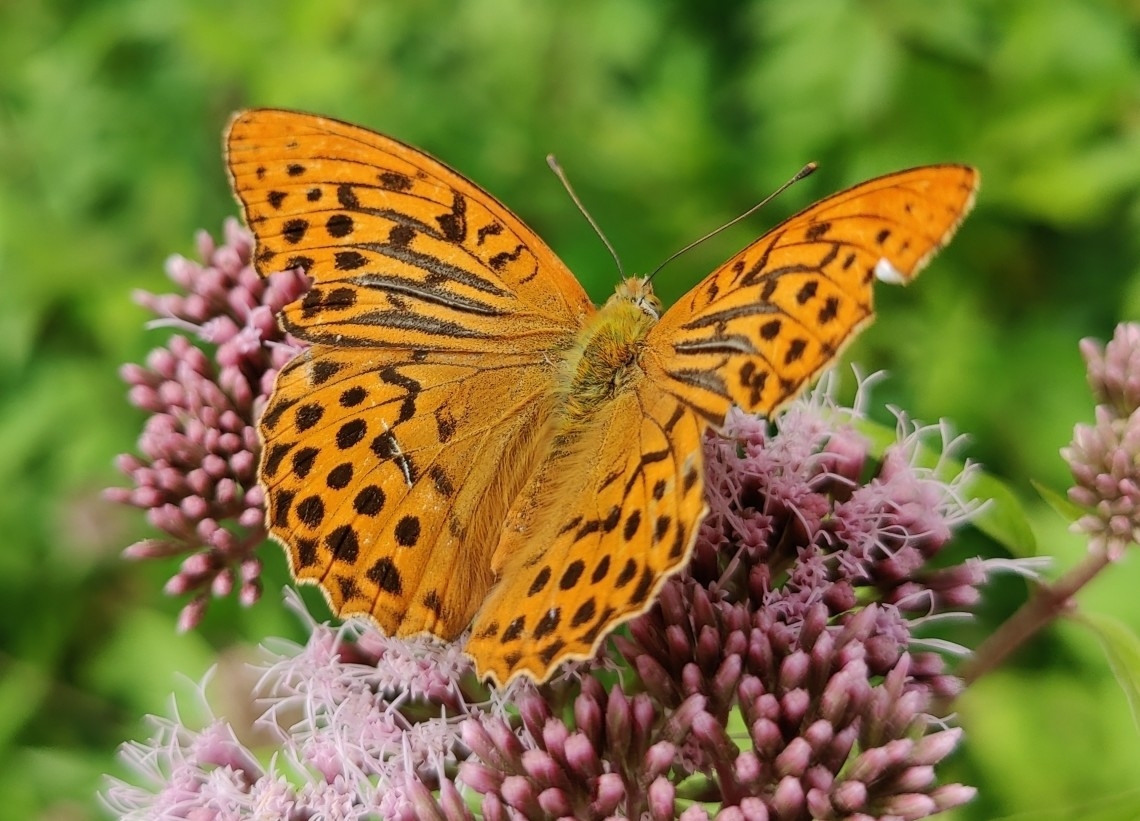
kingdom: Animalia
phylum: Arthropoda
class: Insecta
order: Lepidoptera
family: Nymphalidae
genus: Argynnis
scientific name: Argynnis paphia
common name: Silver-washed fritillary
